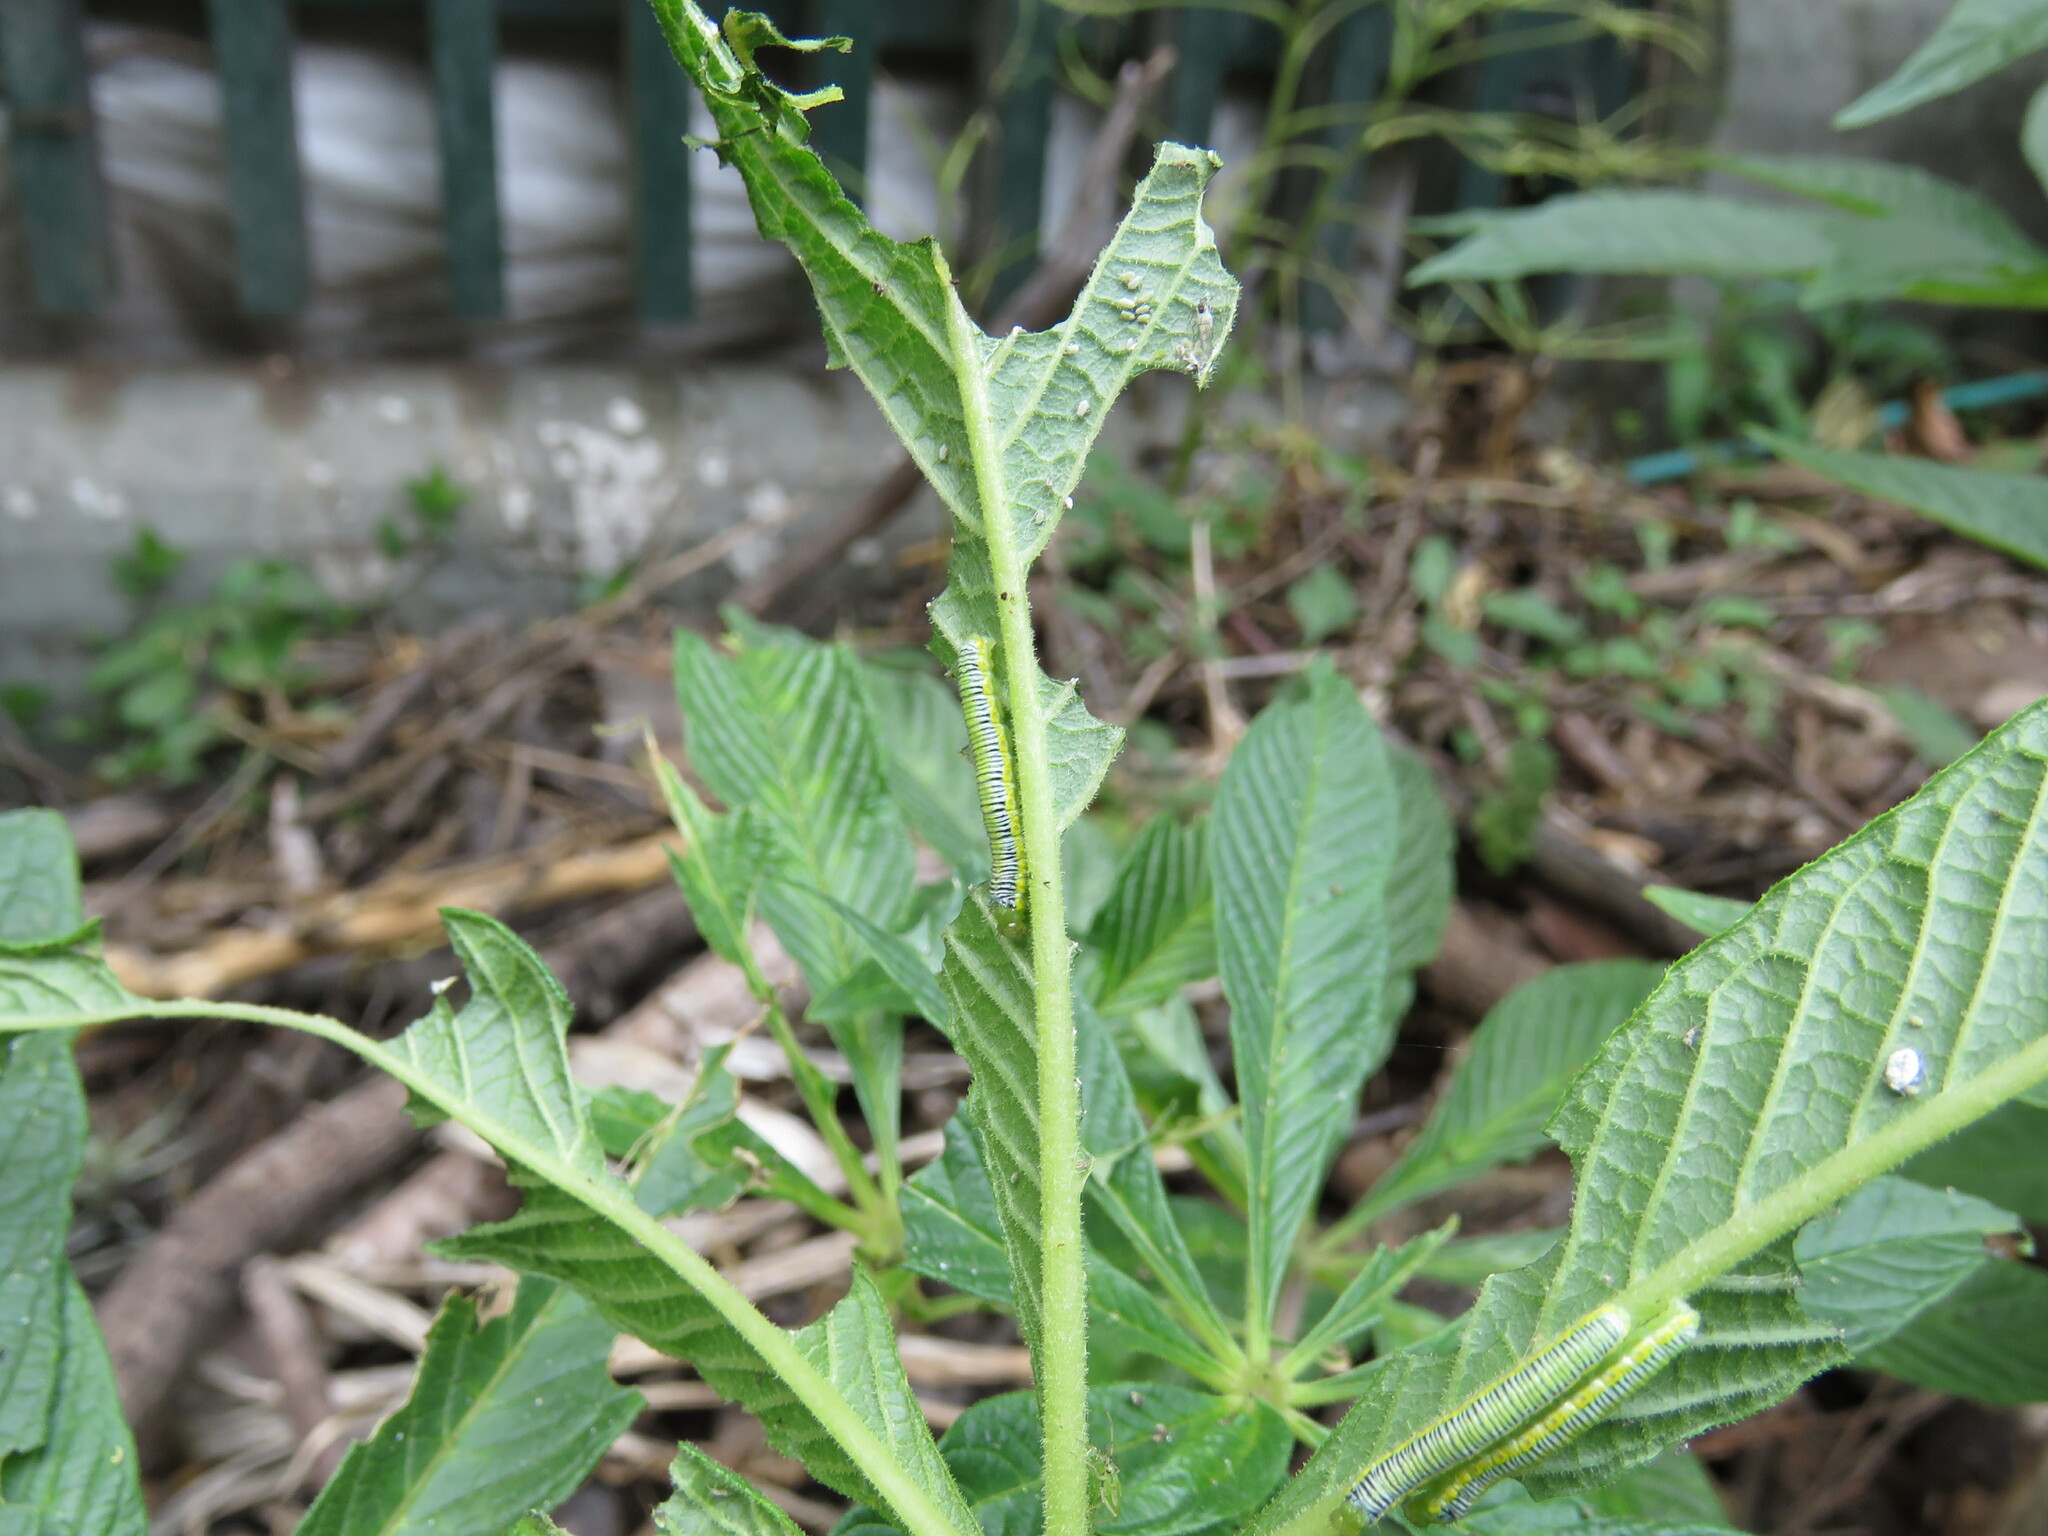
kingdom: Animalia
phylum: Arthropoda
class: Insecta
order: Lepidoptera
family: Pieridae
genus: Leptophobia
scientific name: Leptophobia aripa
